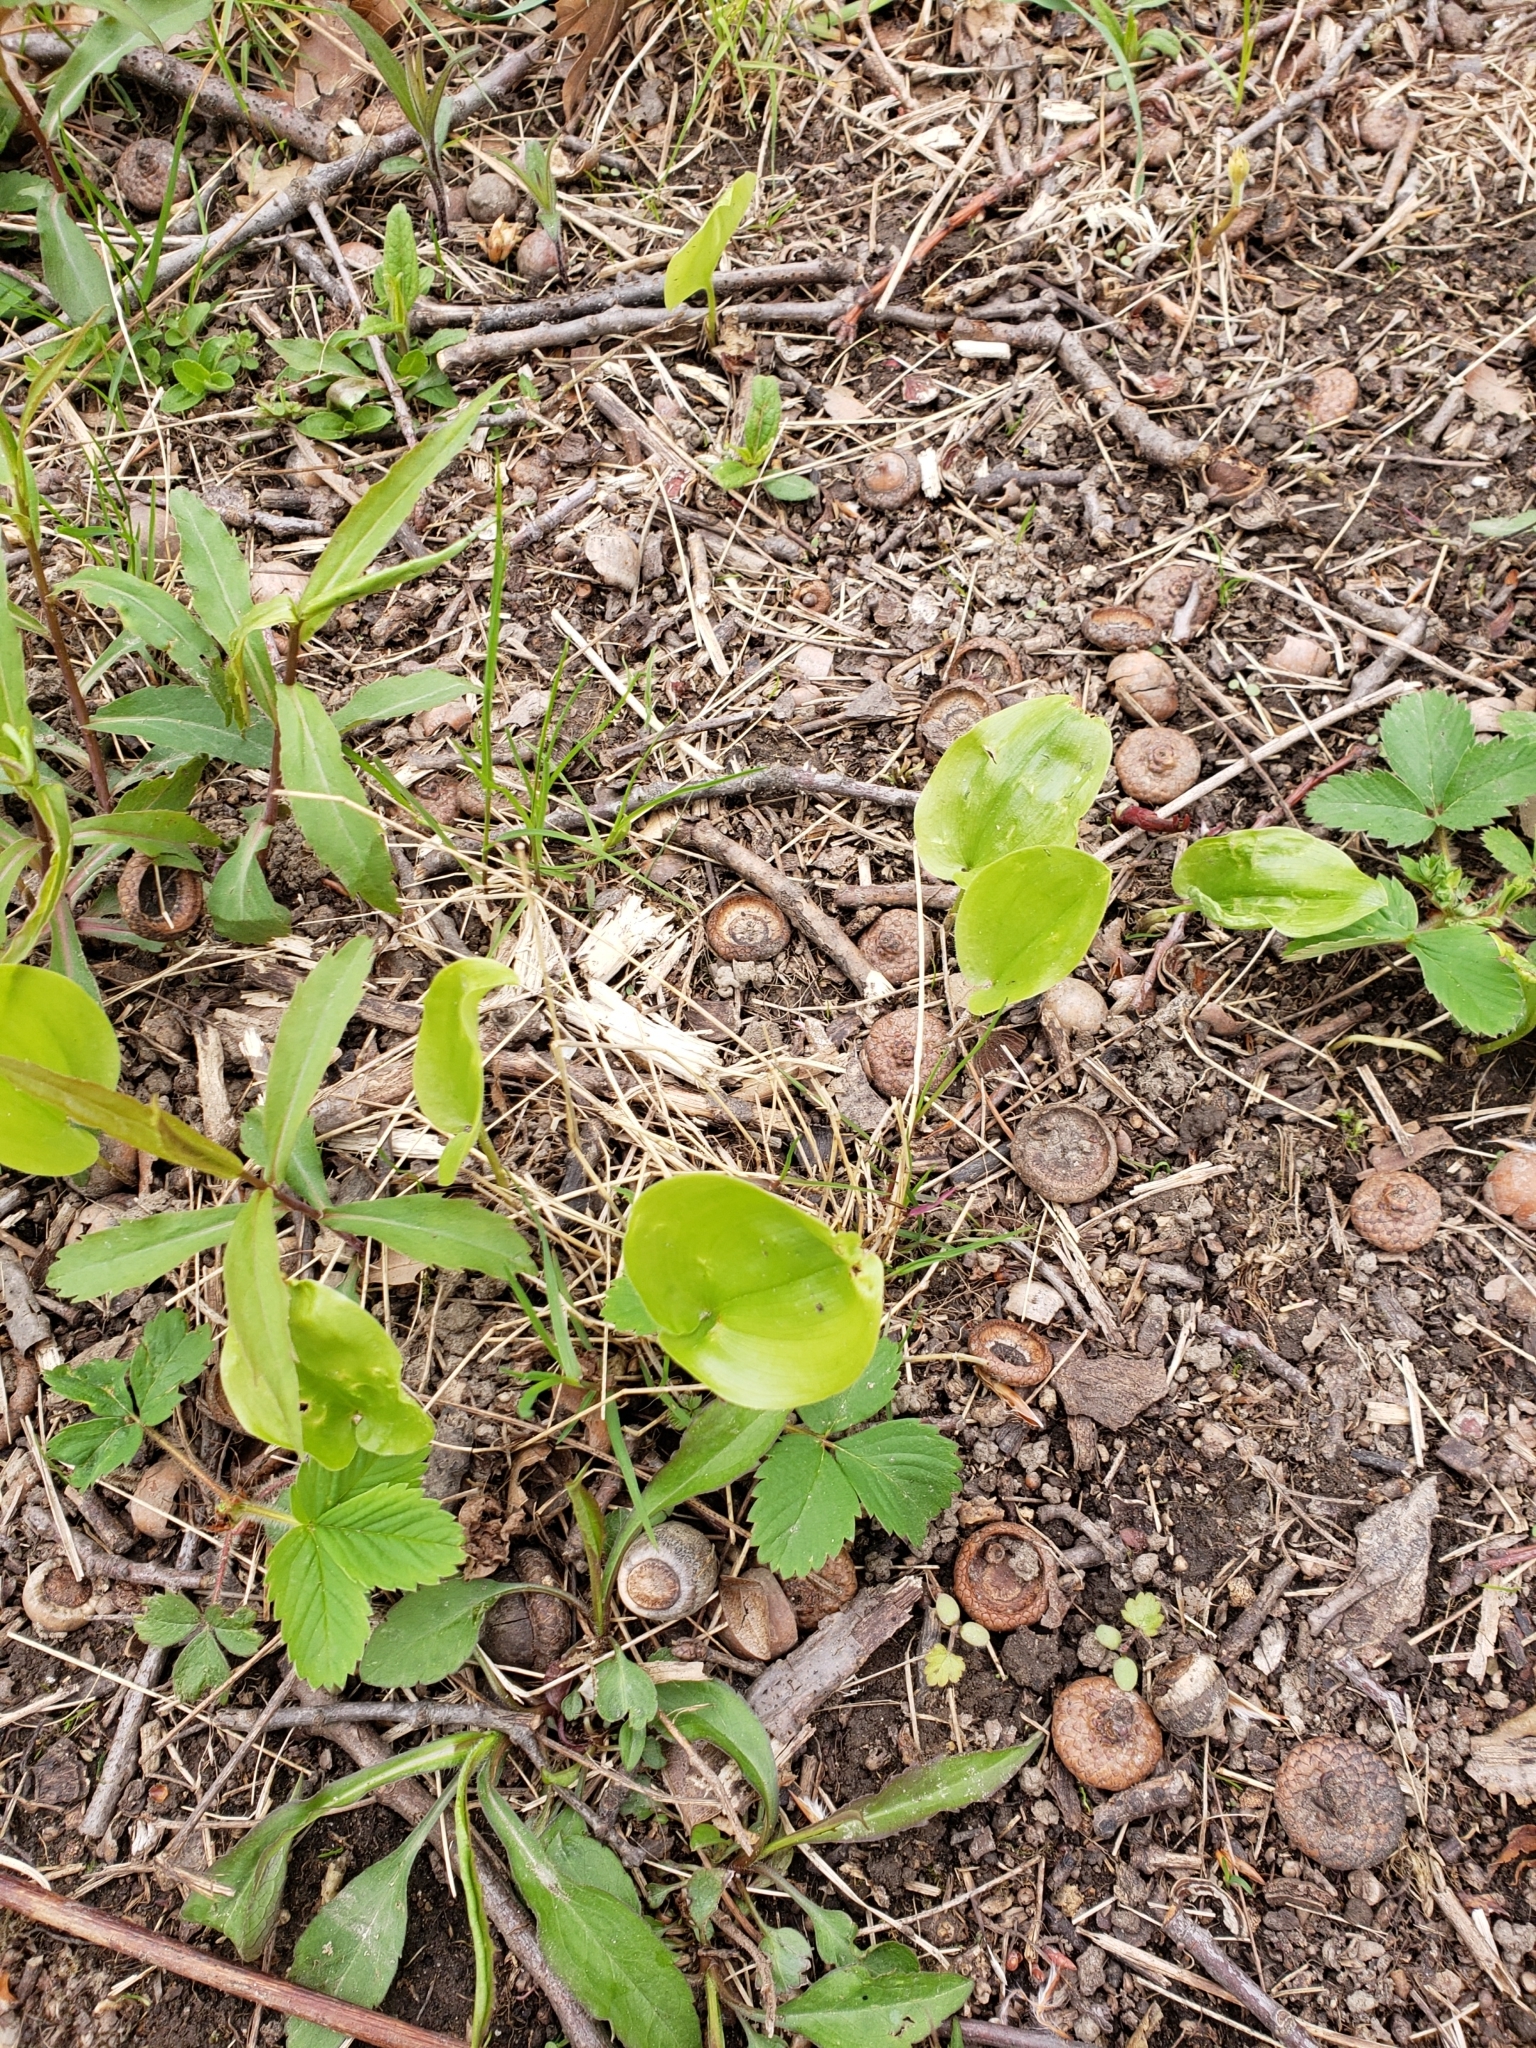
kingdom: Plantae
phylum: Tracheophyta
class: Liliopsida
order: Asparagales
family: Asparagaceae
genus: Maianthemum
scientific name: Maianthemum canadense
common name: False lily-of-the-valley
